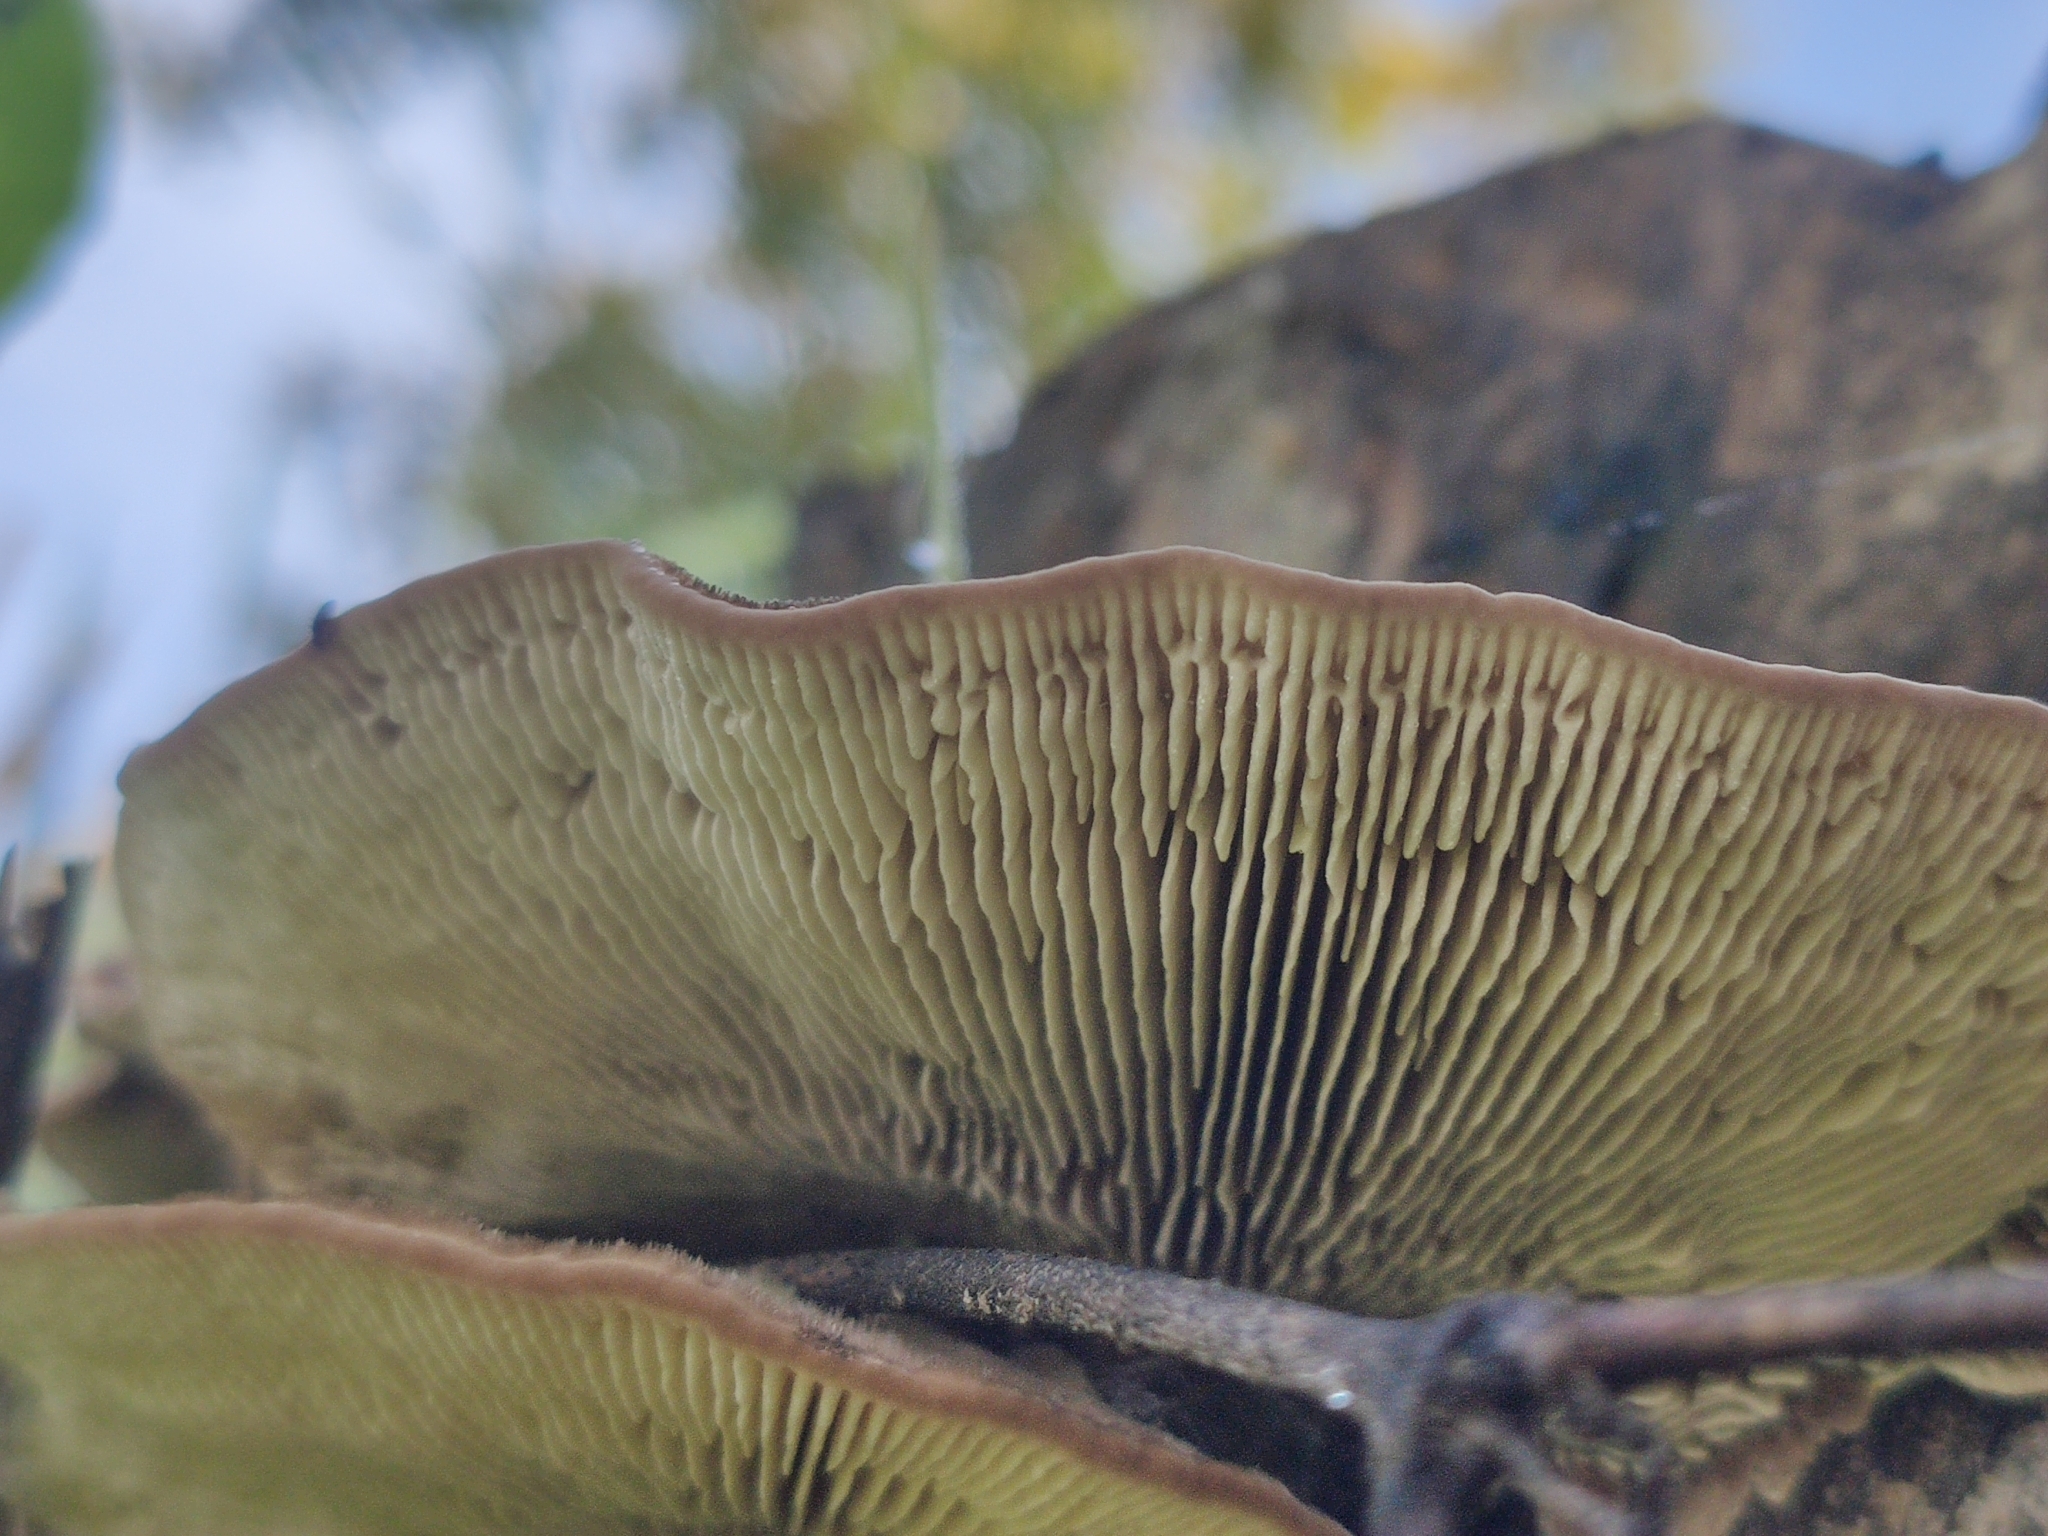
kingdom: Fungi
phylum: Basidiomycota
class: Agaricomycetes
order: Polyporales
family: Polyporaceae
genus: Lenzites
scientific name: Lenzites betulinus
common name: Birch mazegill
